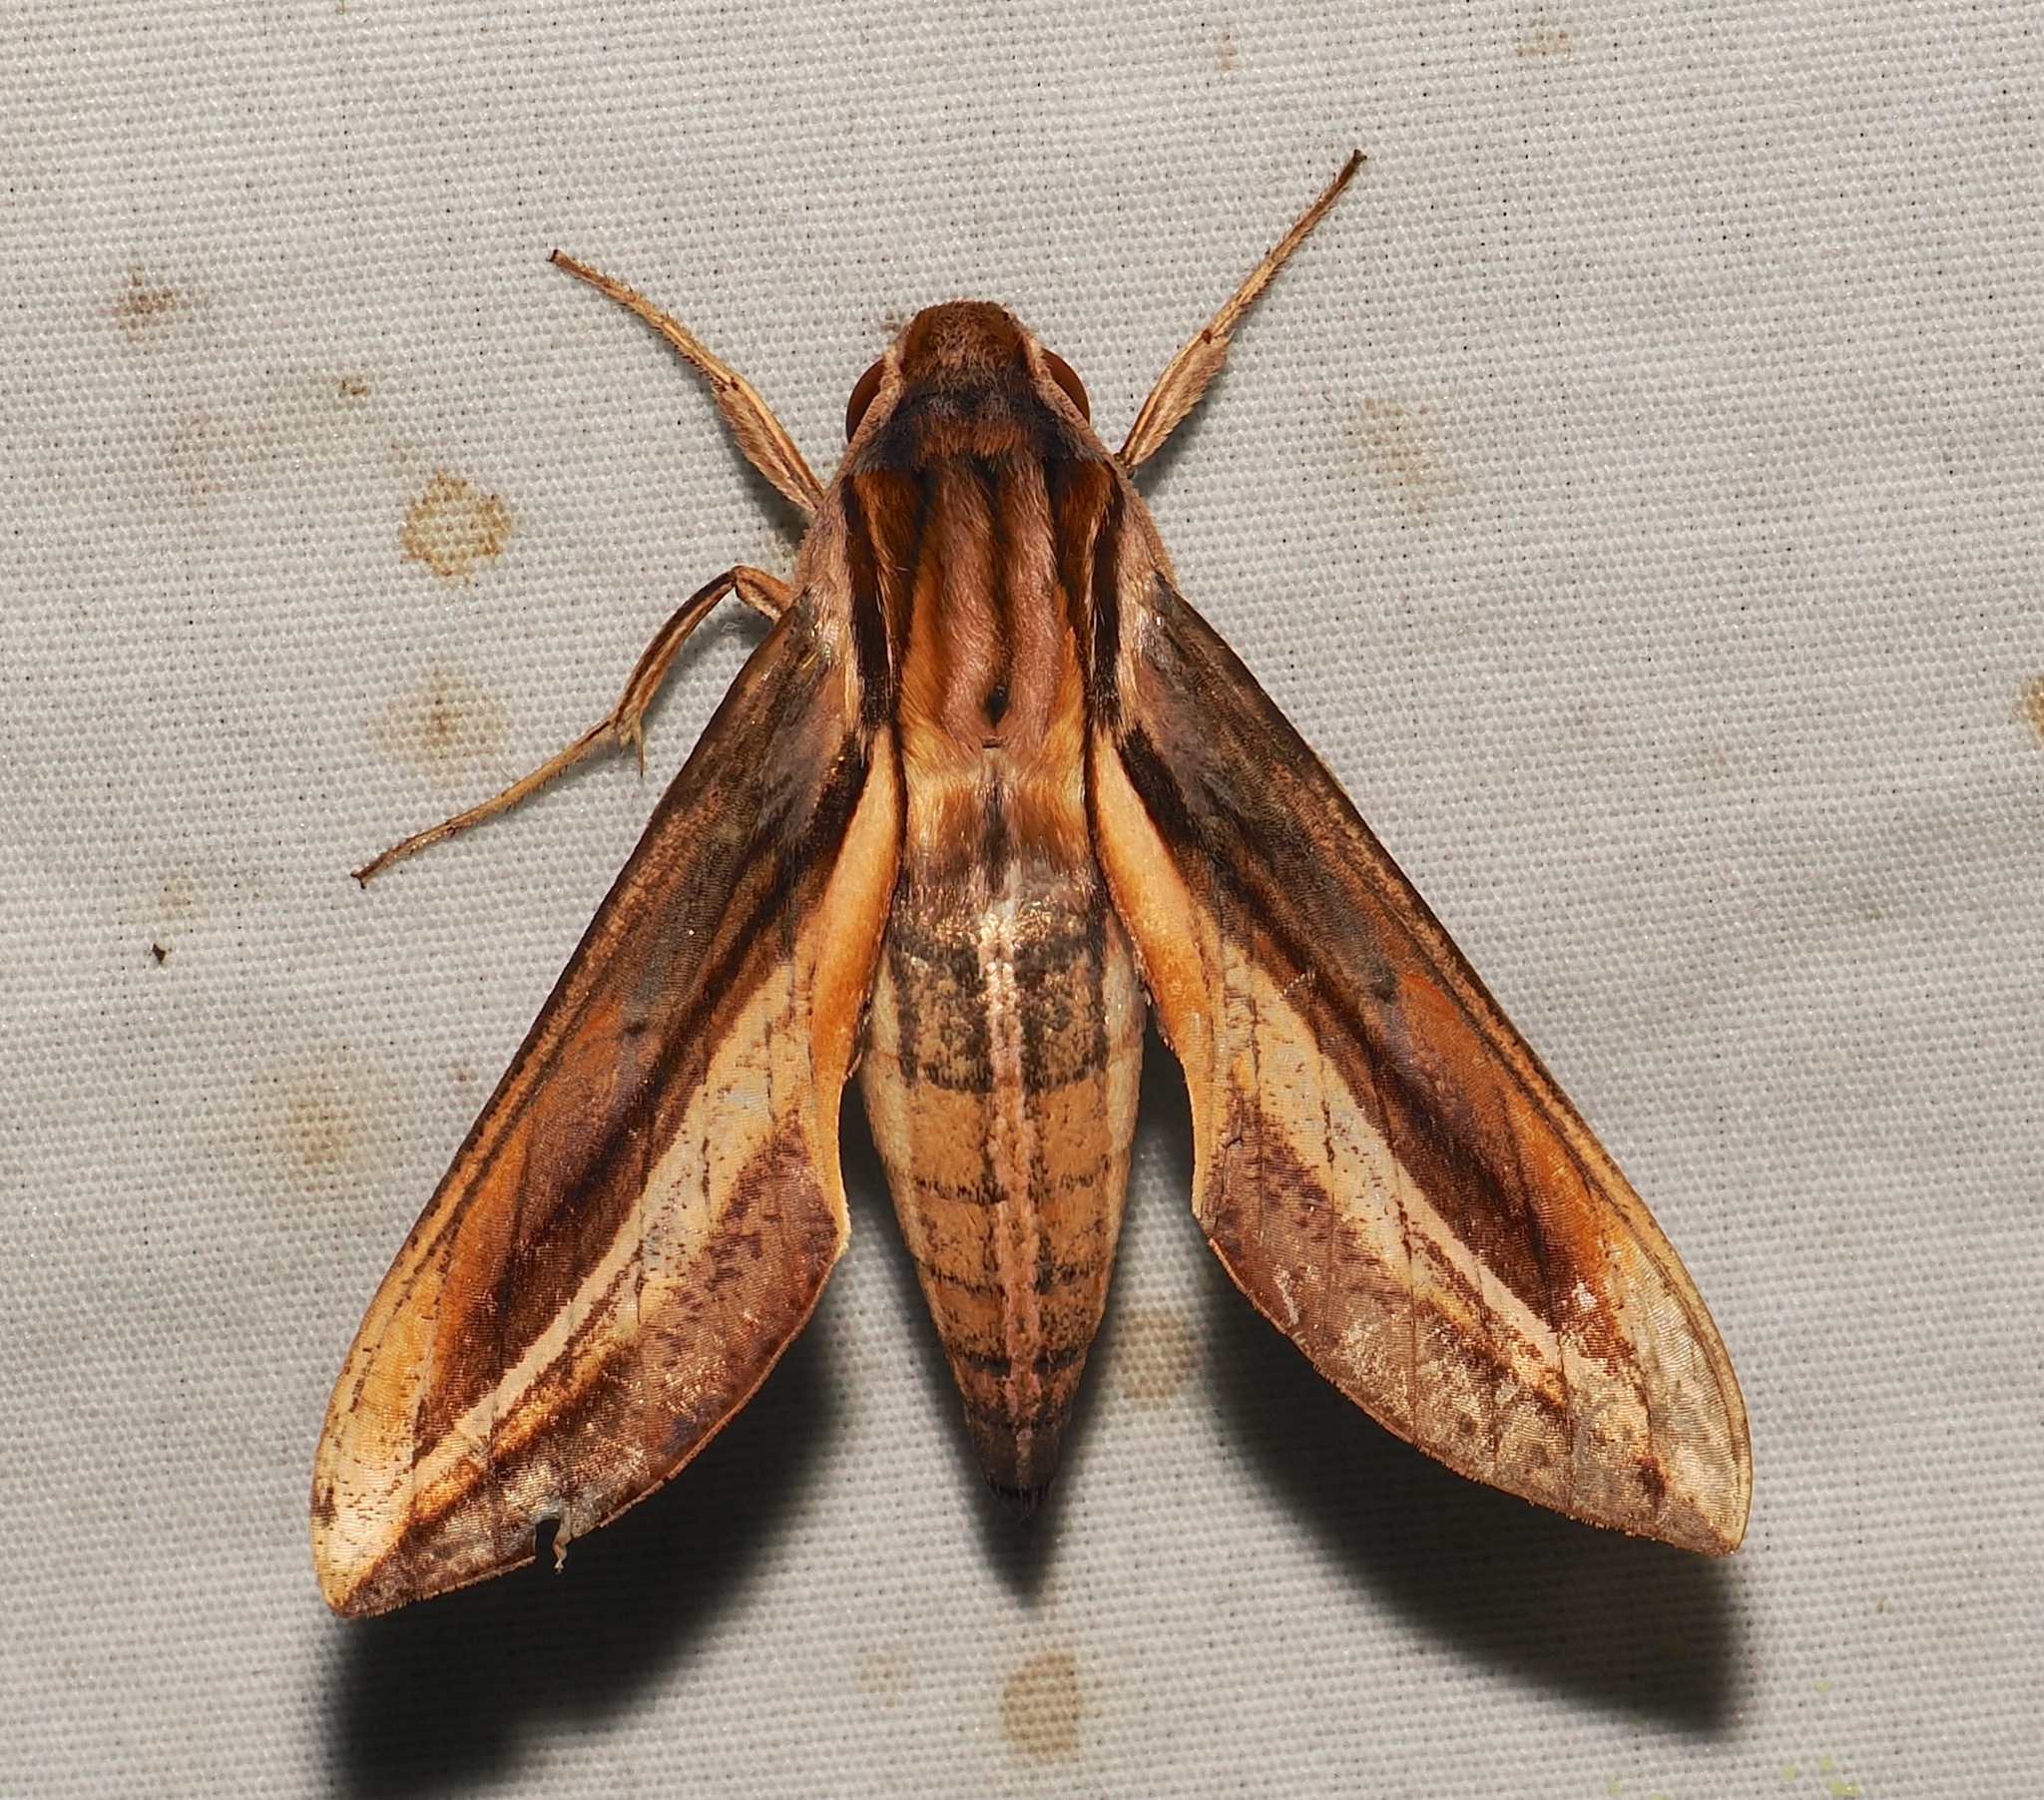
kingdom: Animalia
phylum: Arthropoda
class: Insecta
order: Lepidoptera
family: Sphingidae
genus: Xylophanes
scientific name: Xylophanes thyelia
